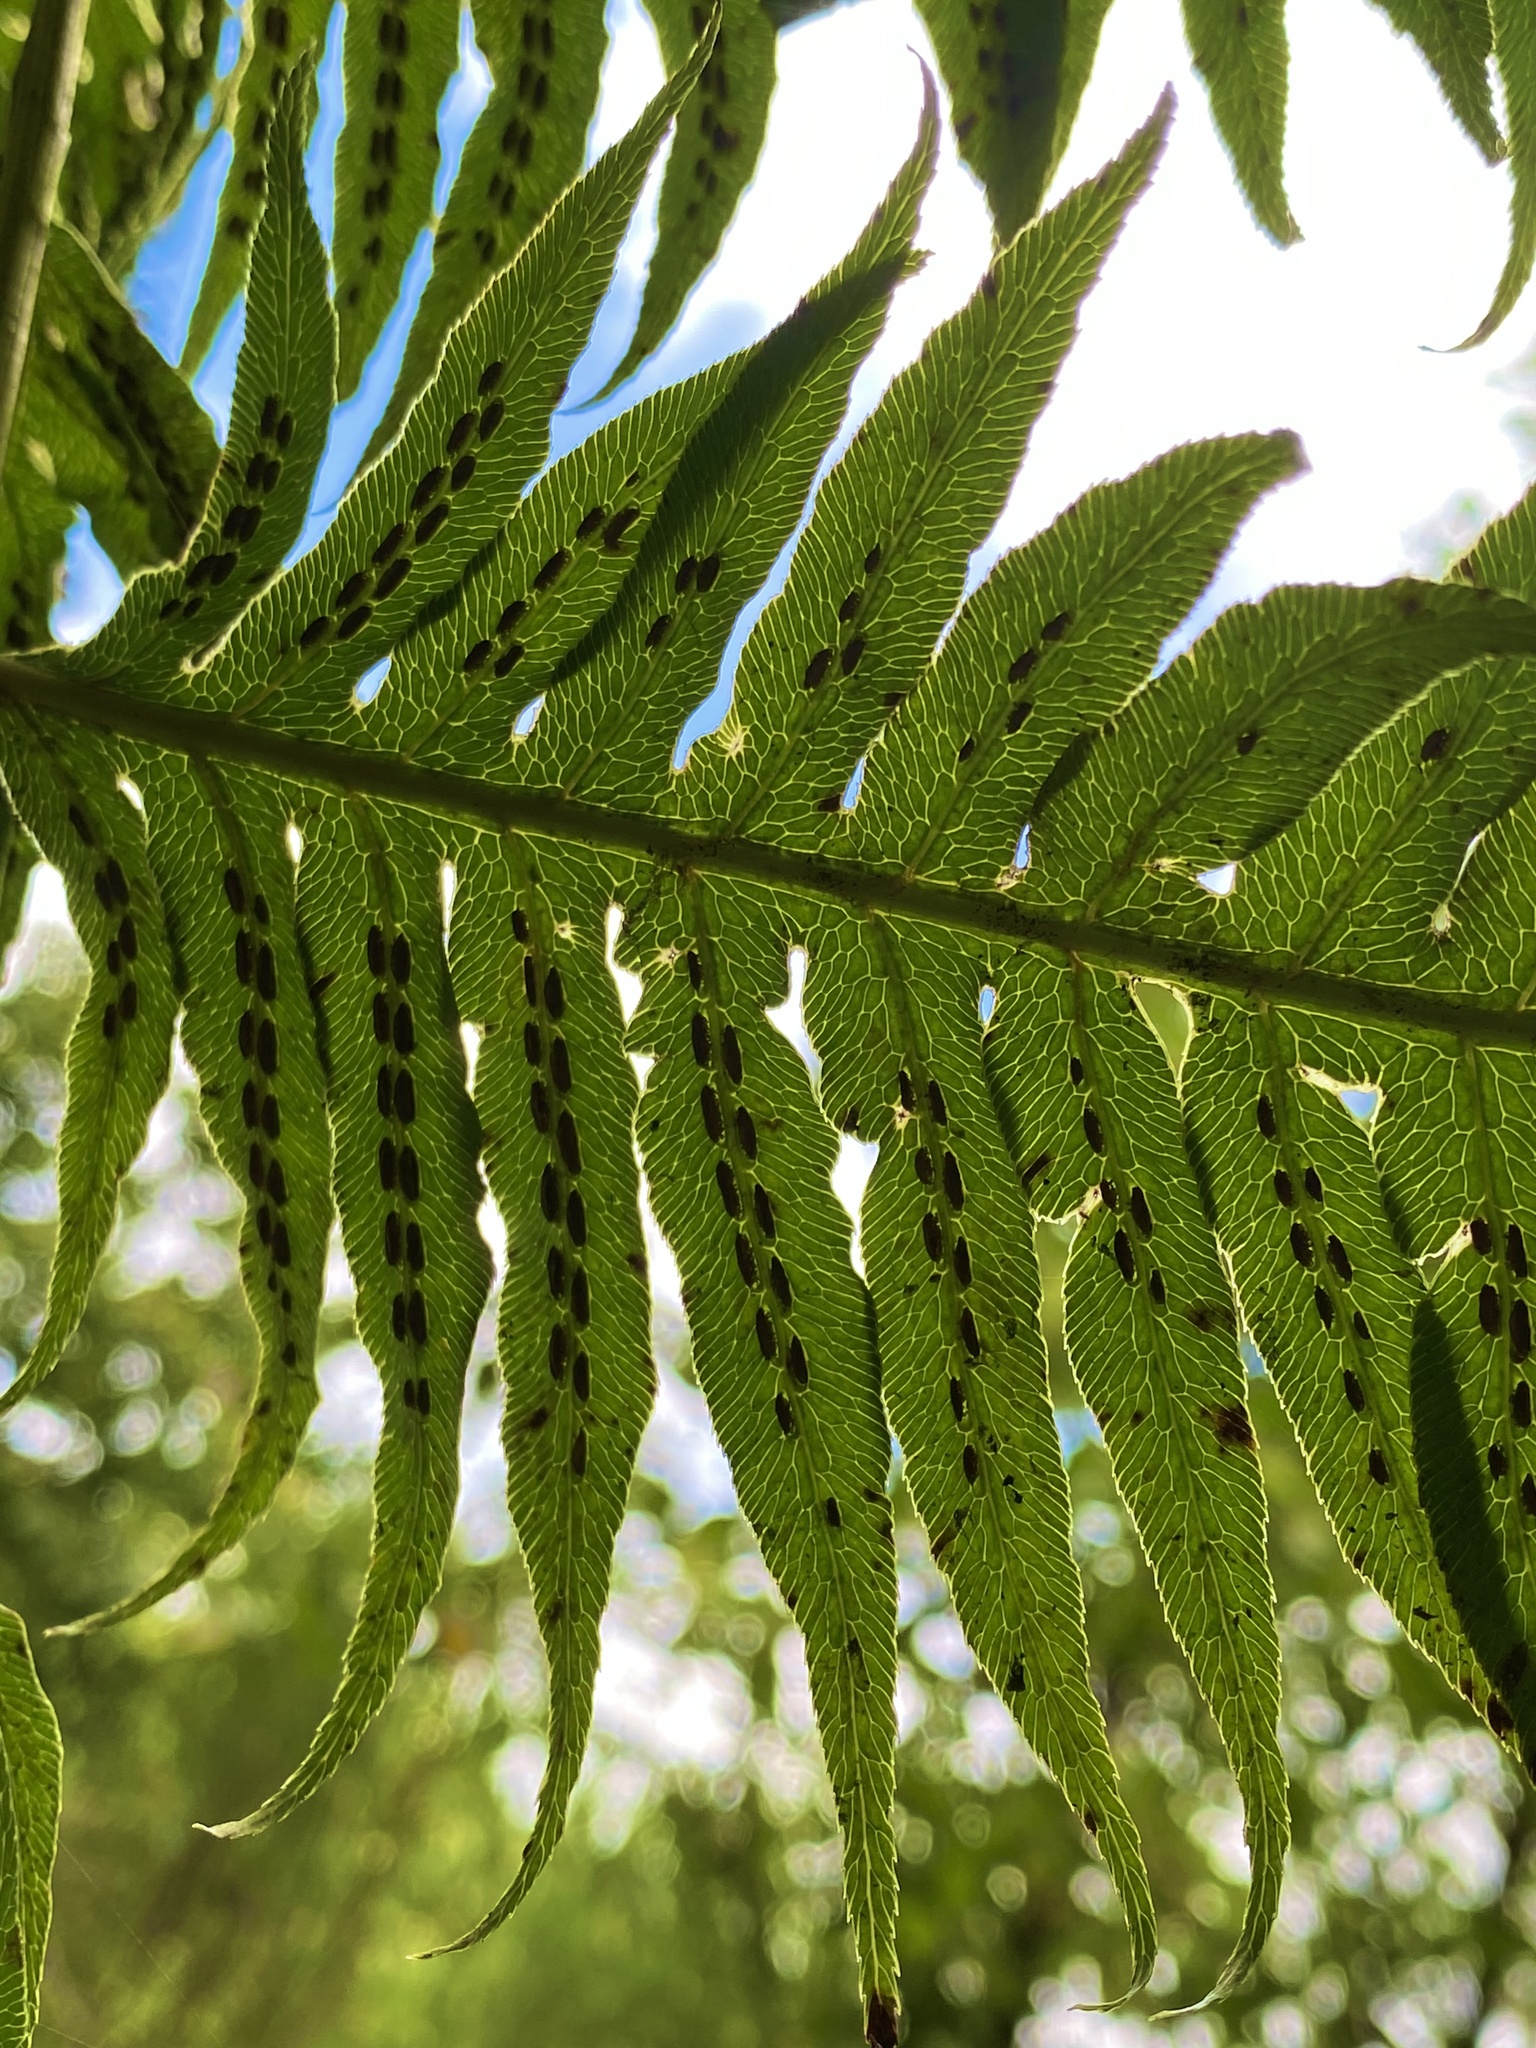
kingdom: Plantae
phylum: Tracheophyta
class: Polypodiopsida
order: Polypodiales
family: Blechnaceae
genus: Woodwardia
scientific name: Woodwardia radicans
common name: Rooting chainfern
